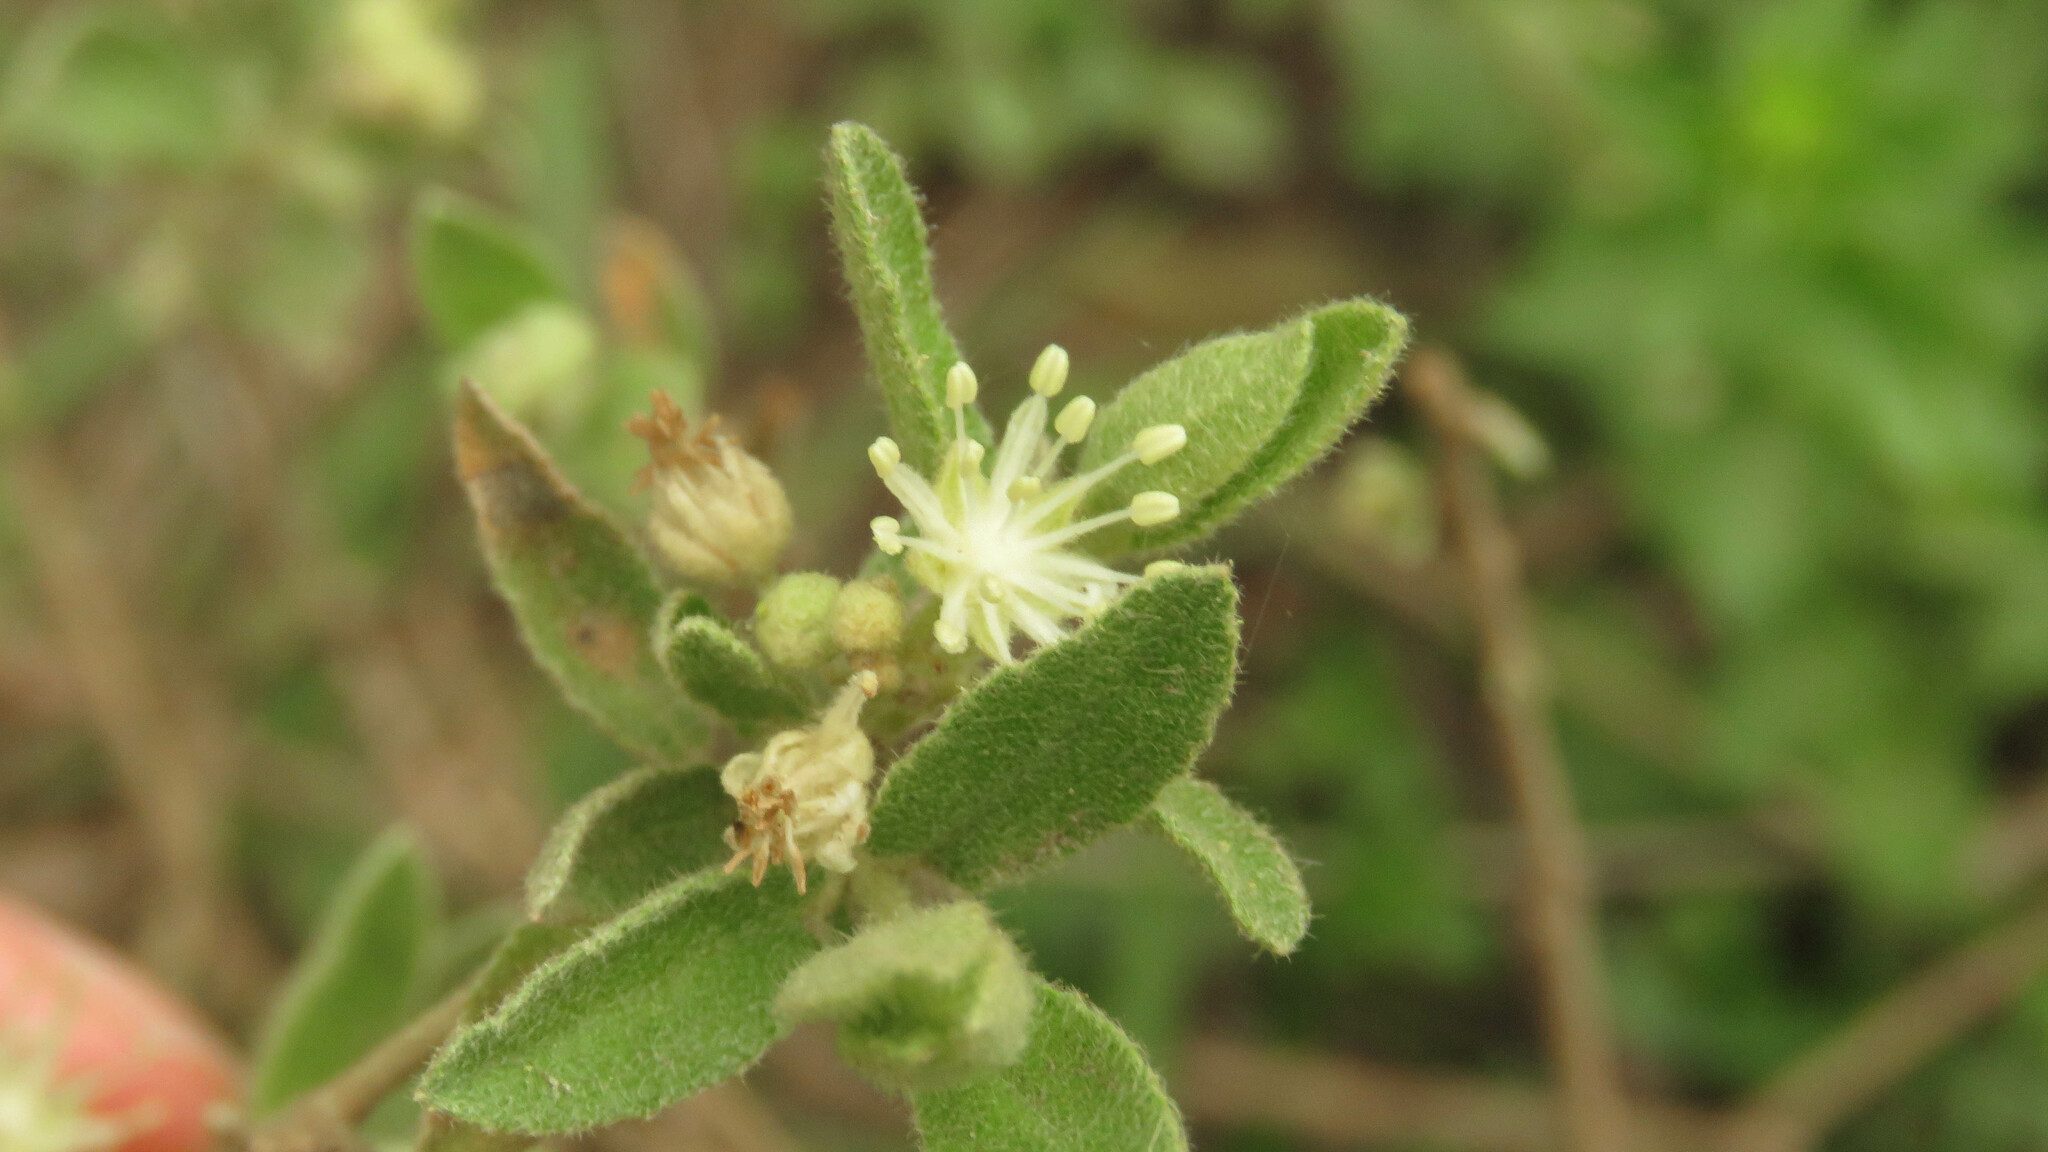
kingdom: Plantae
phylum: Tracheophyta
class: Magnoliopsida
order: Malpighiales
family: Euphorbiaceae
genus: Croton
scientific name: Croton laureltyanus
